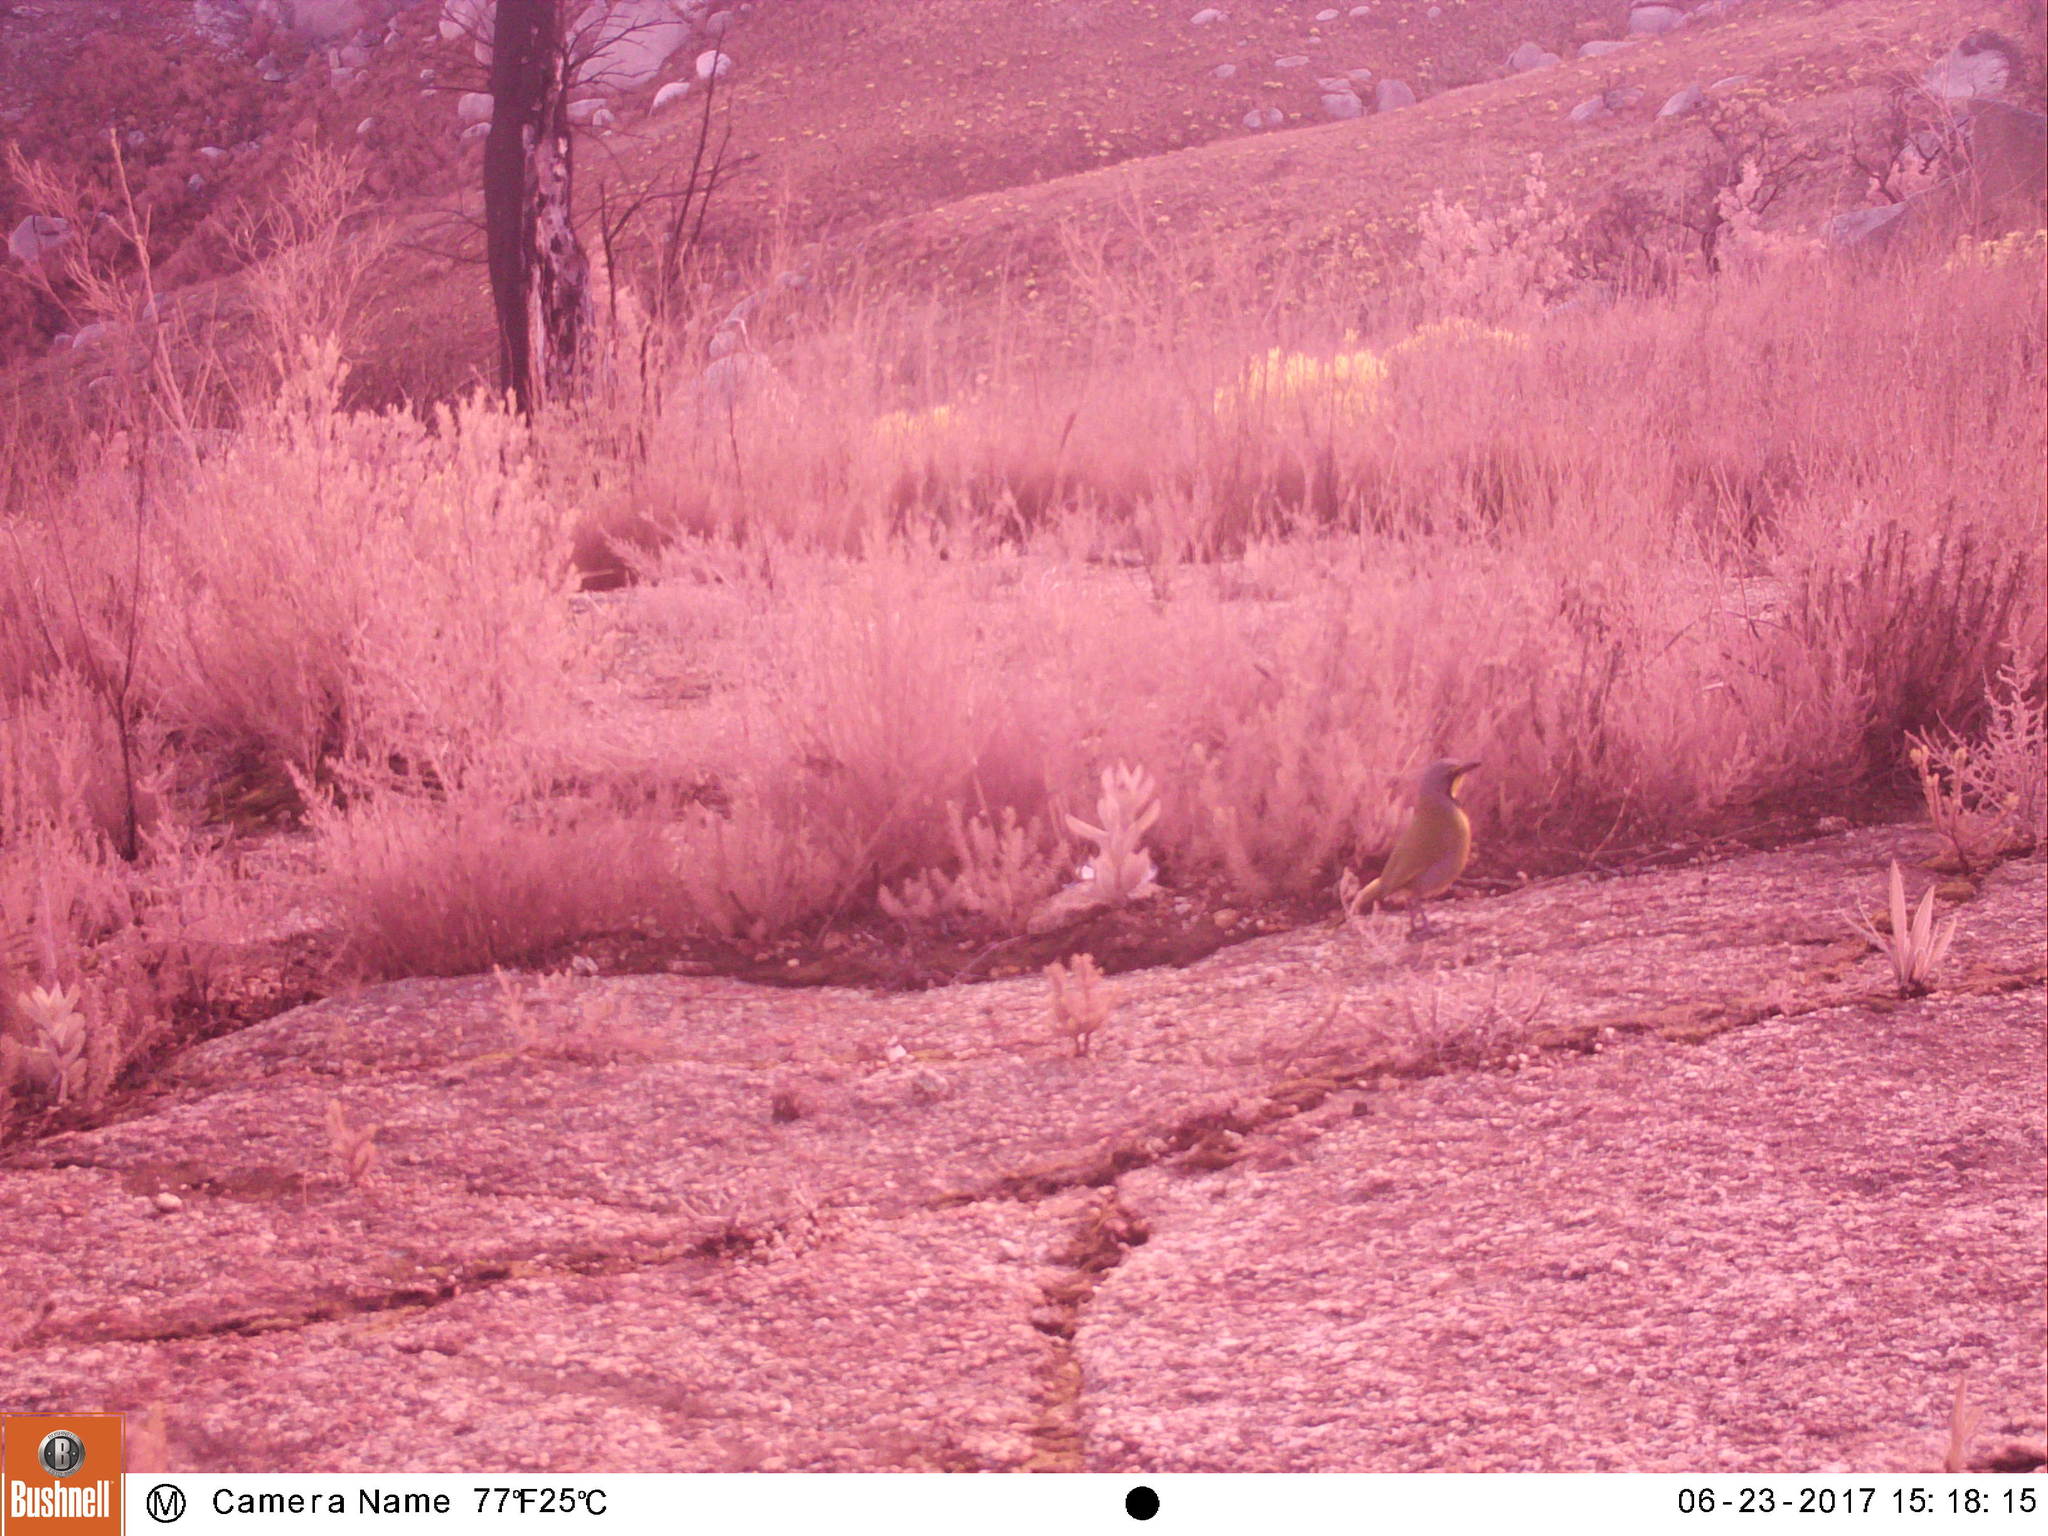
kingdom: Animalia
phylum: Chordata
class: Aves
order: Passeriformes
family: Malaconotidae
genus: Telophorus
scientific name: Telophorus zeylonus
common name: Bokmakierie
